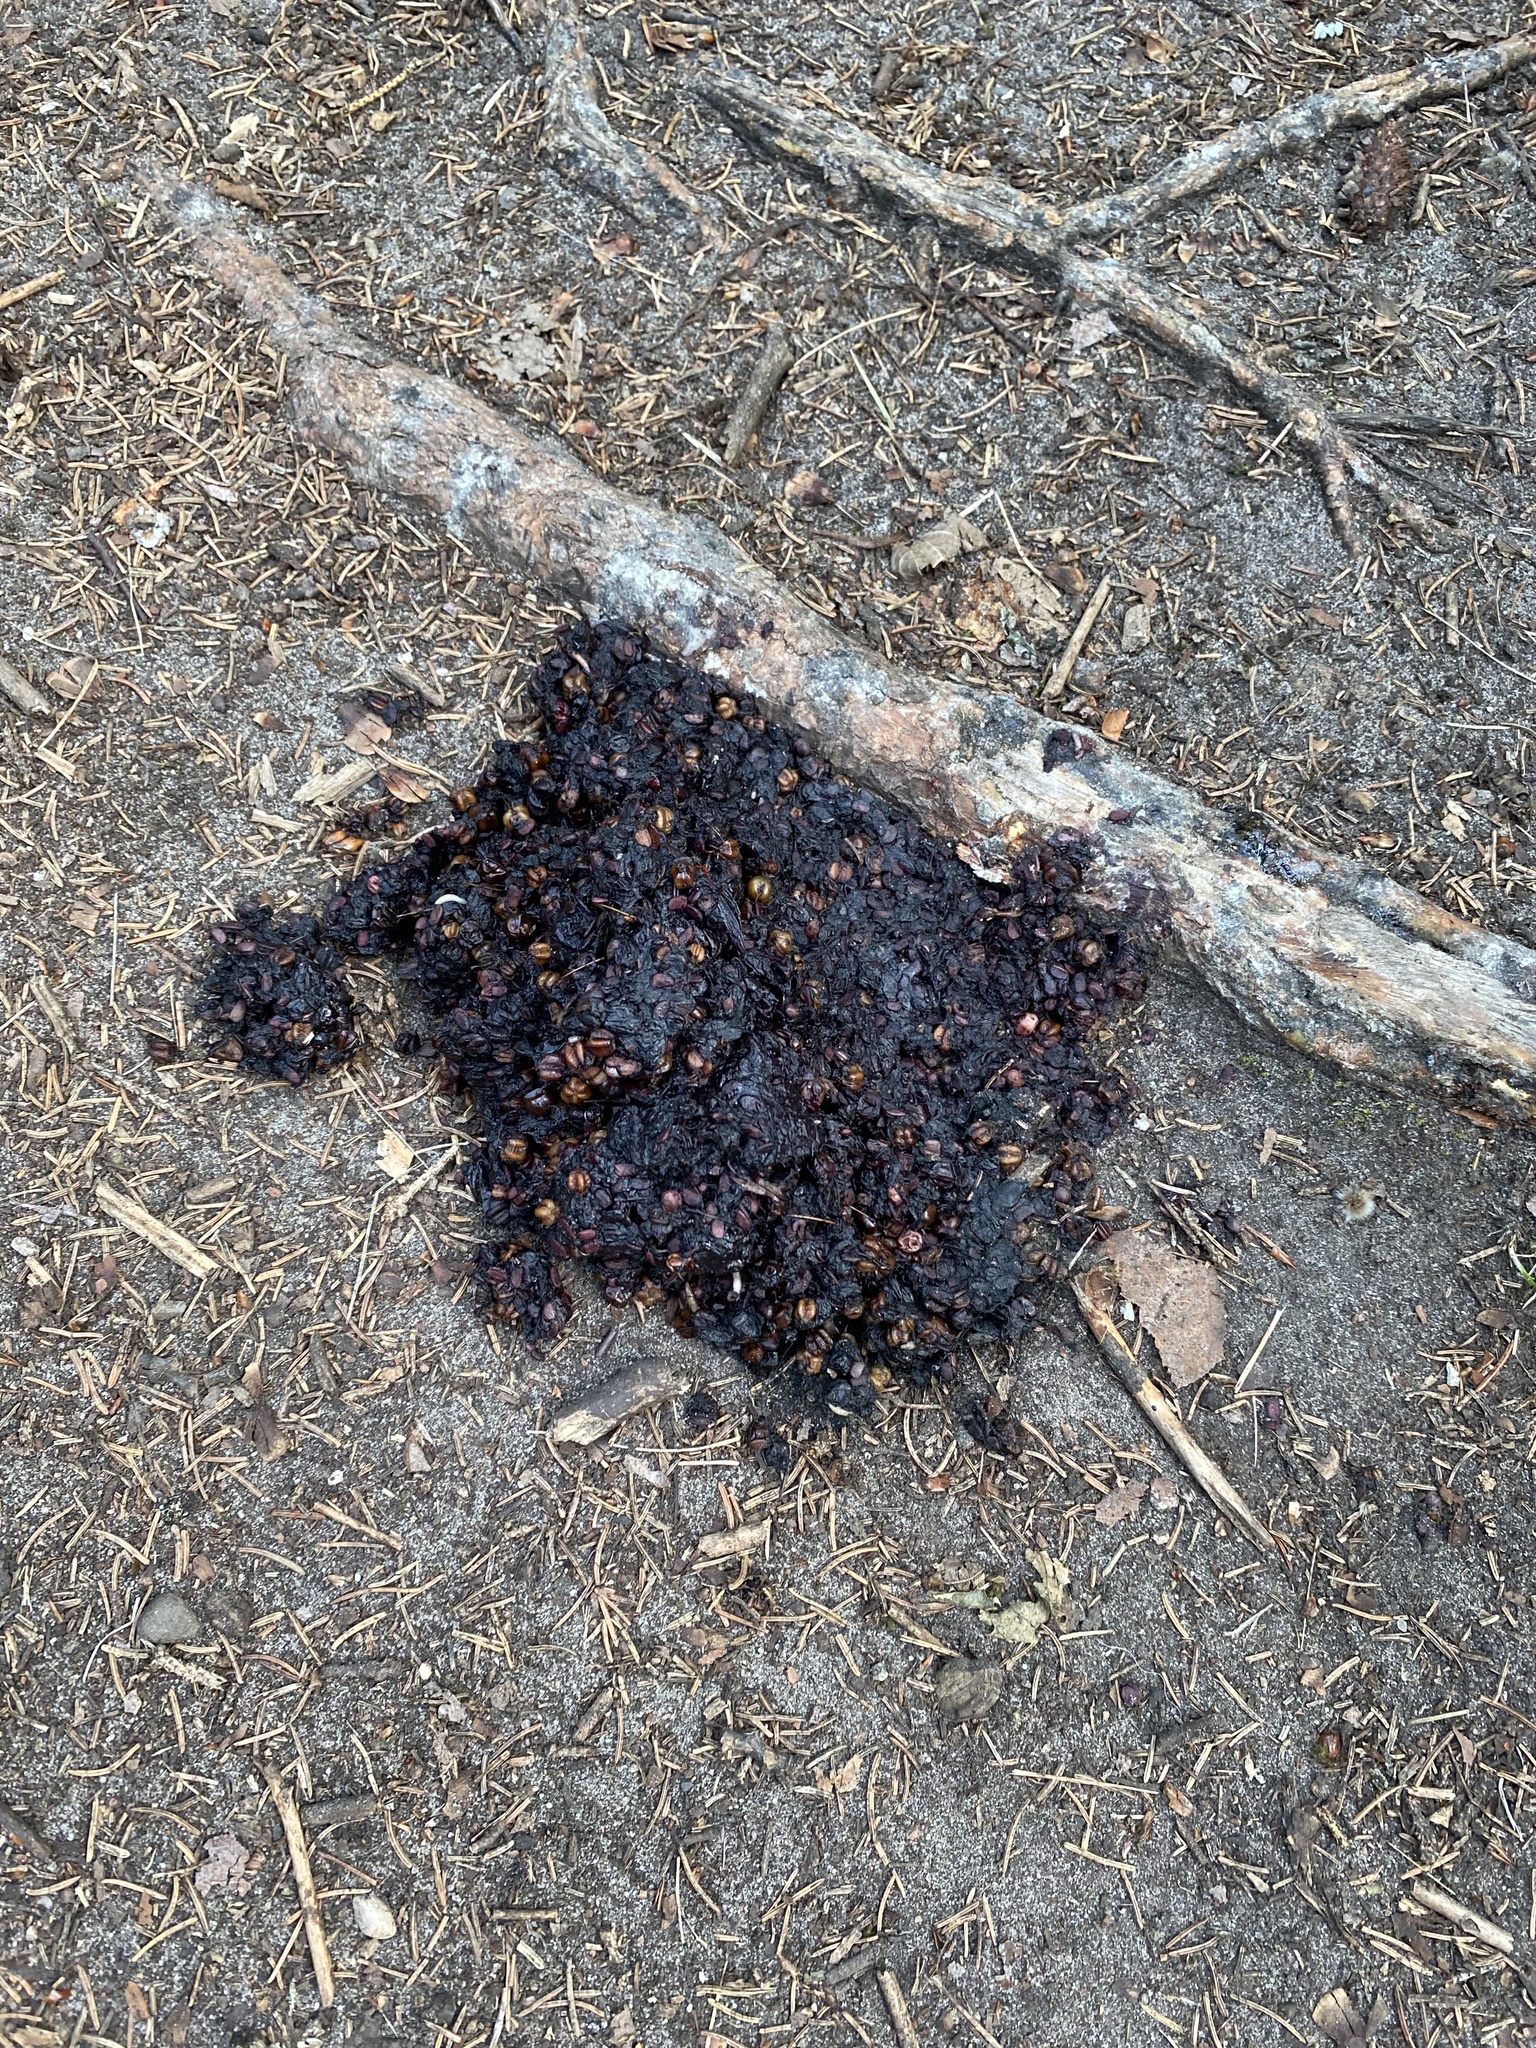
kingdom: Animalia
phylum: Chordata
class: Mammalia
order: Carnivora
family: Ursidae
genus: Ursus
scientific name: Ursus americanus
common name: American black bear
